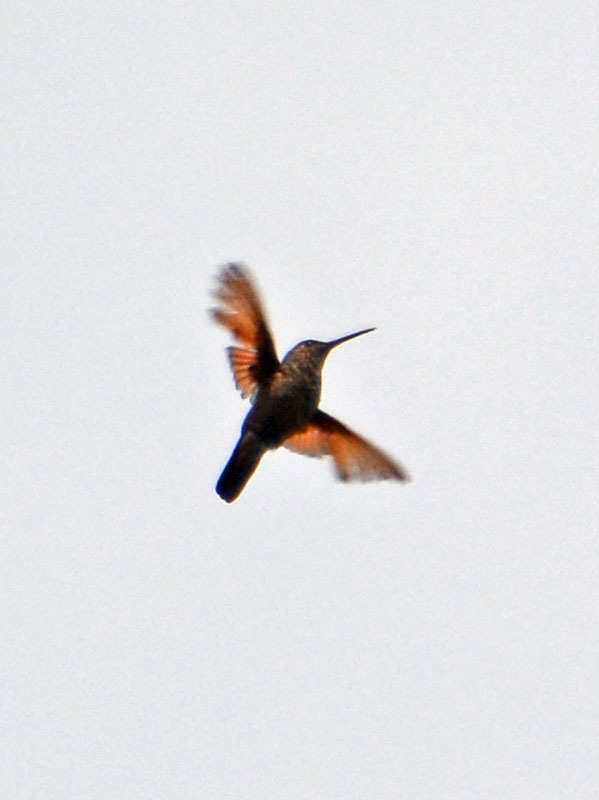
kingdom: Animalia
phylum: Chordata
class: Aves
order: Apodiformes
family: Trochilidae
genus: Saucerottia
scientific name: Saucerottia beryllina
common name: Berylline hummingbird
